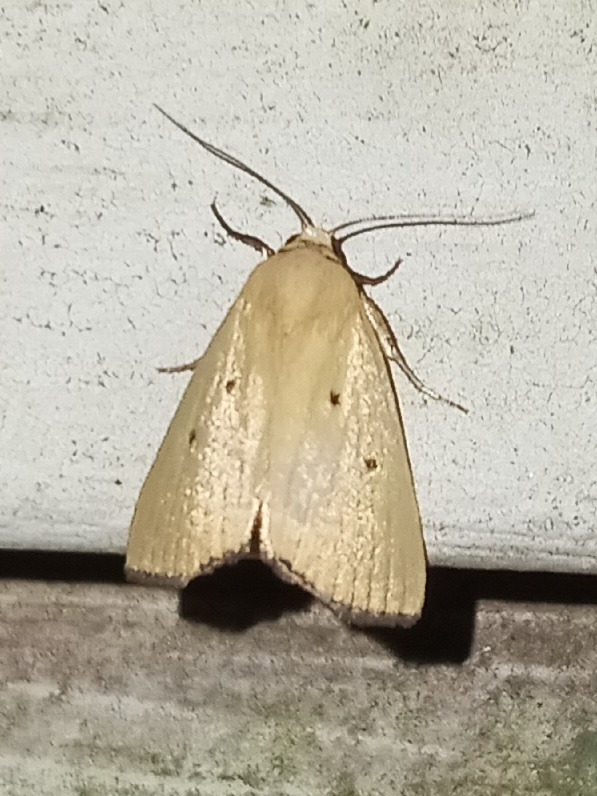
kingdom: Animalia
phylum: Arthropoda
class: Insecta
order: Lepidoptera
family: Noctuidae
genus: Marimatha
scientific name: Marimatha nigrofimbria
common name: Black-bordered lemon moth
